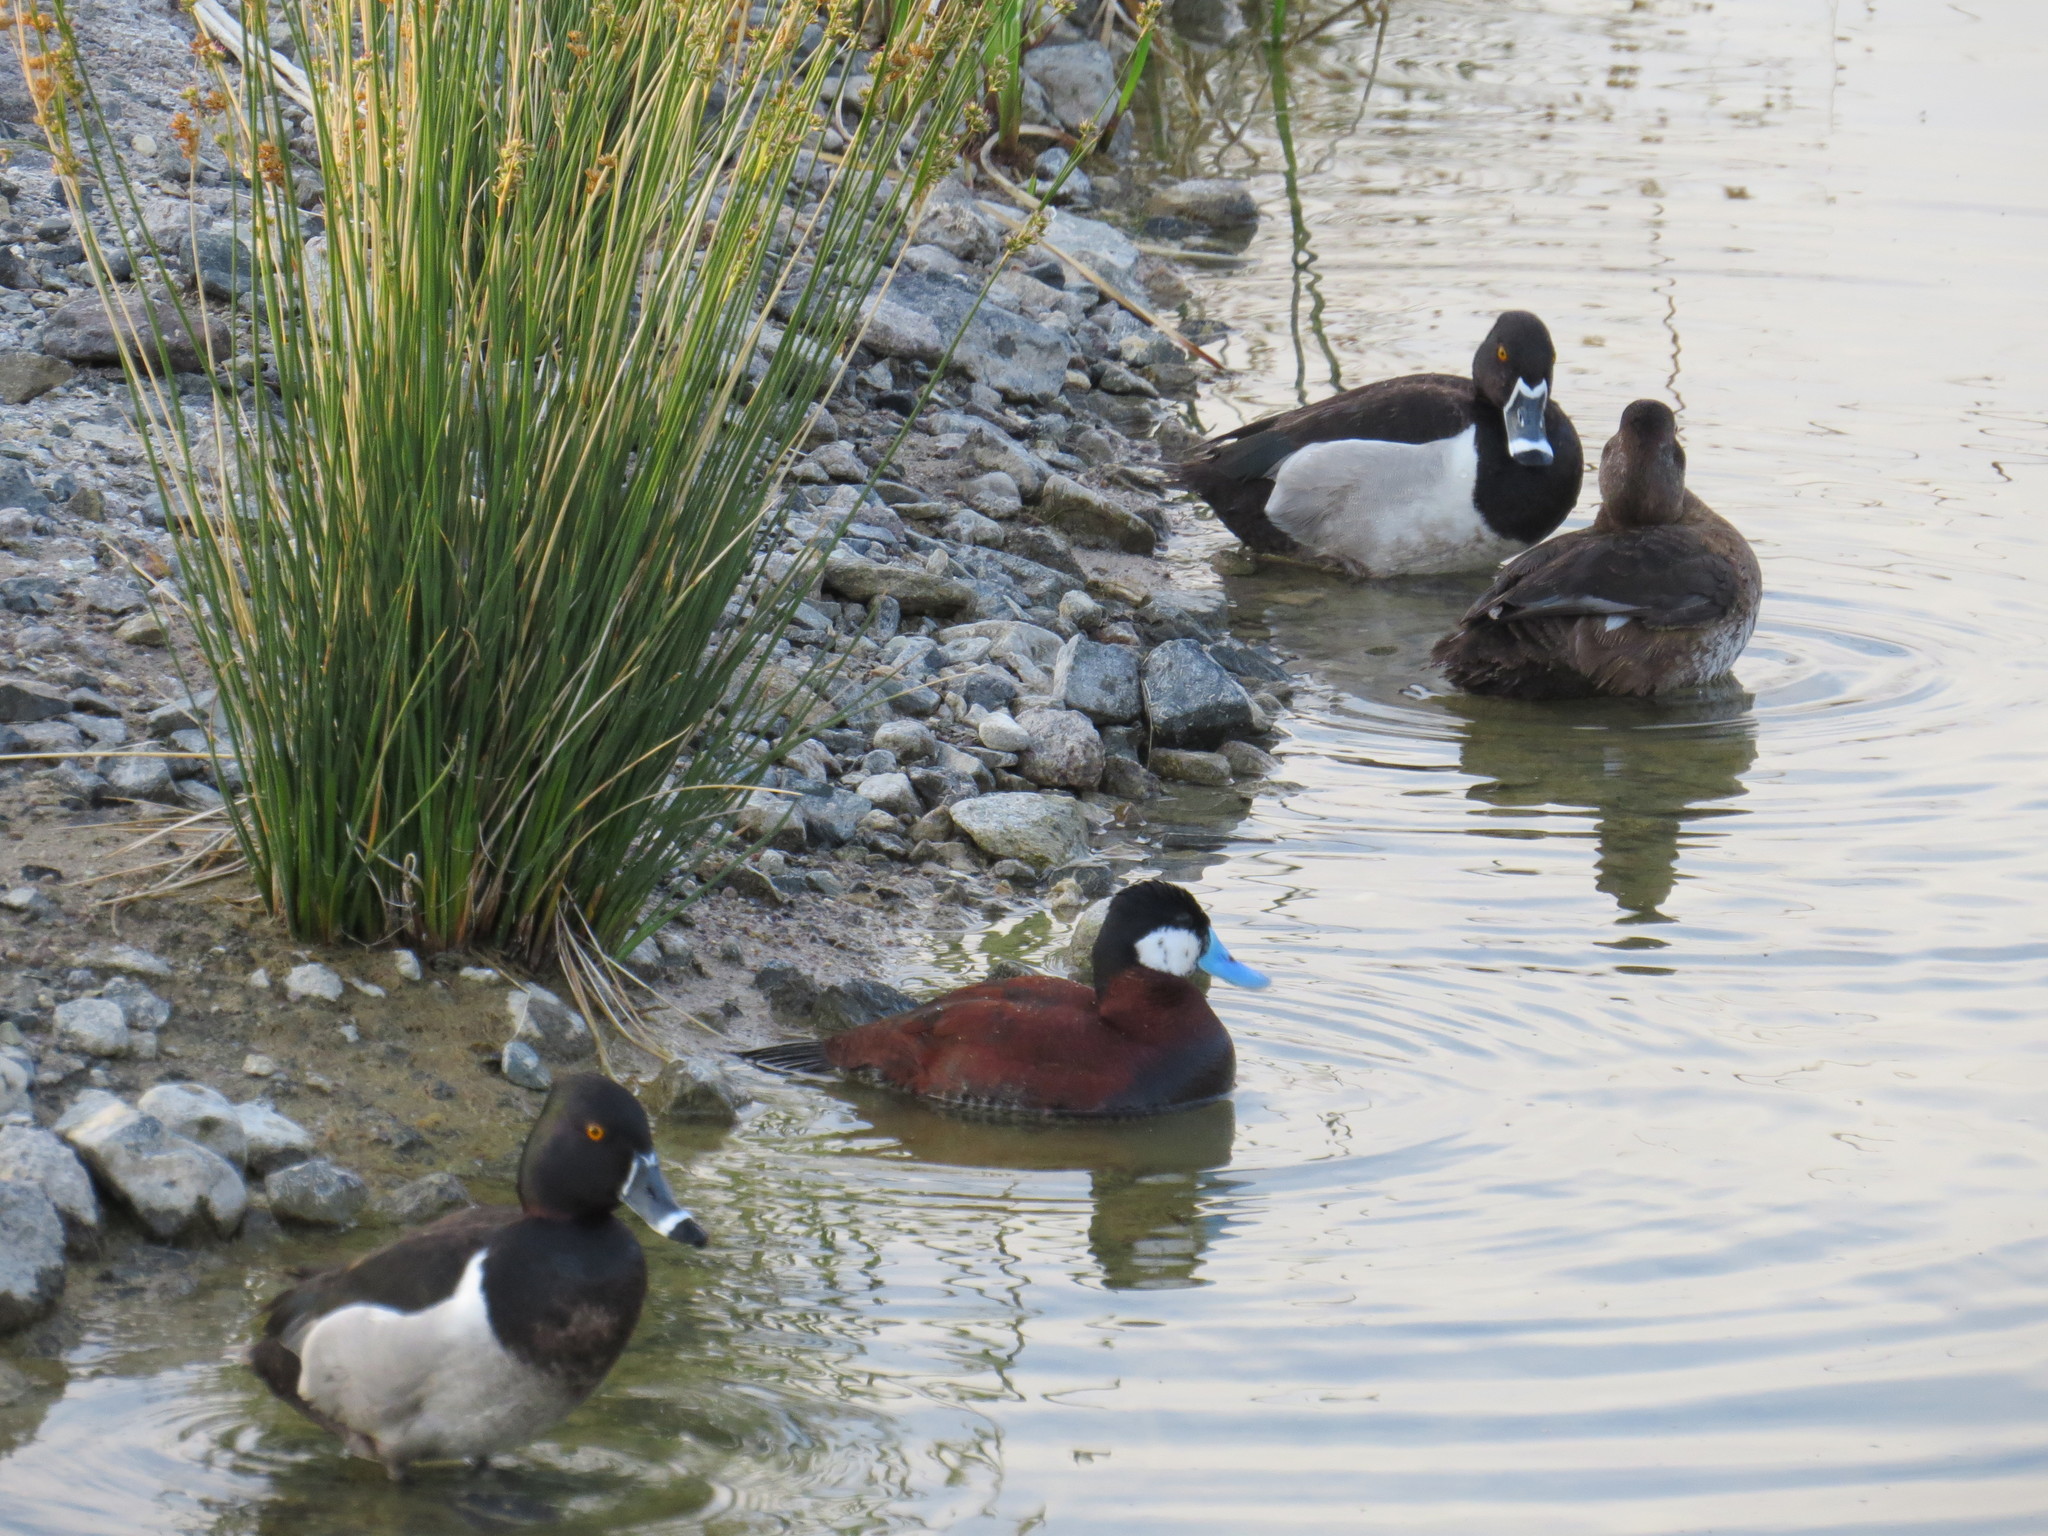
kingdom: Animalia
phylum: Chordata
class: Aves
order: Anseriformes
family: Anatidae
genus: Oxyura
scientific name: Oxyura jamaicensis
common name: Ruddy duck
